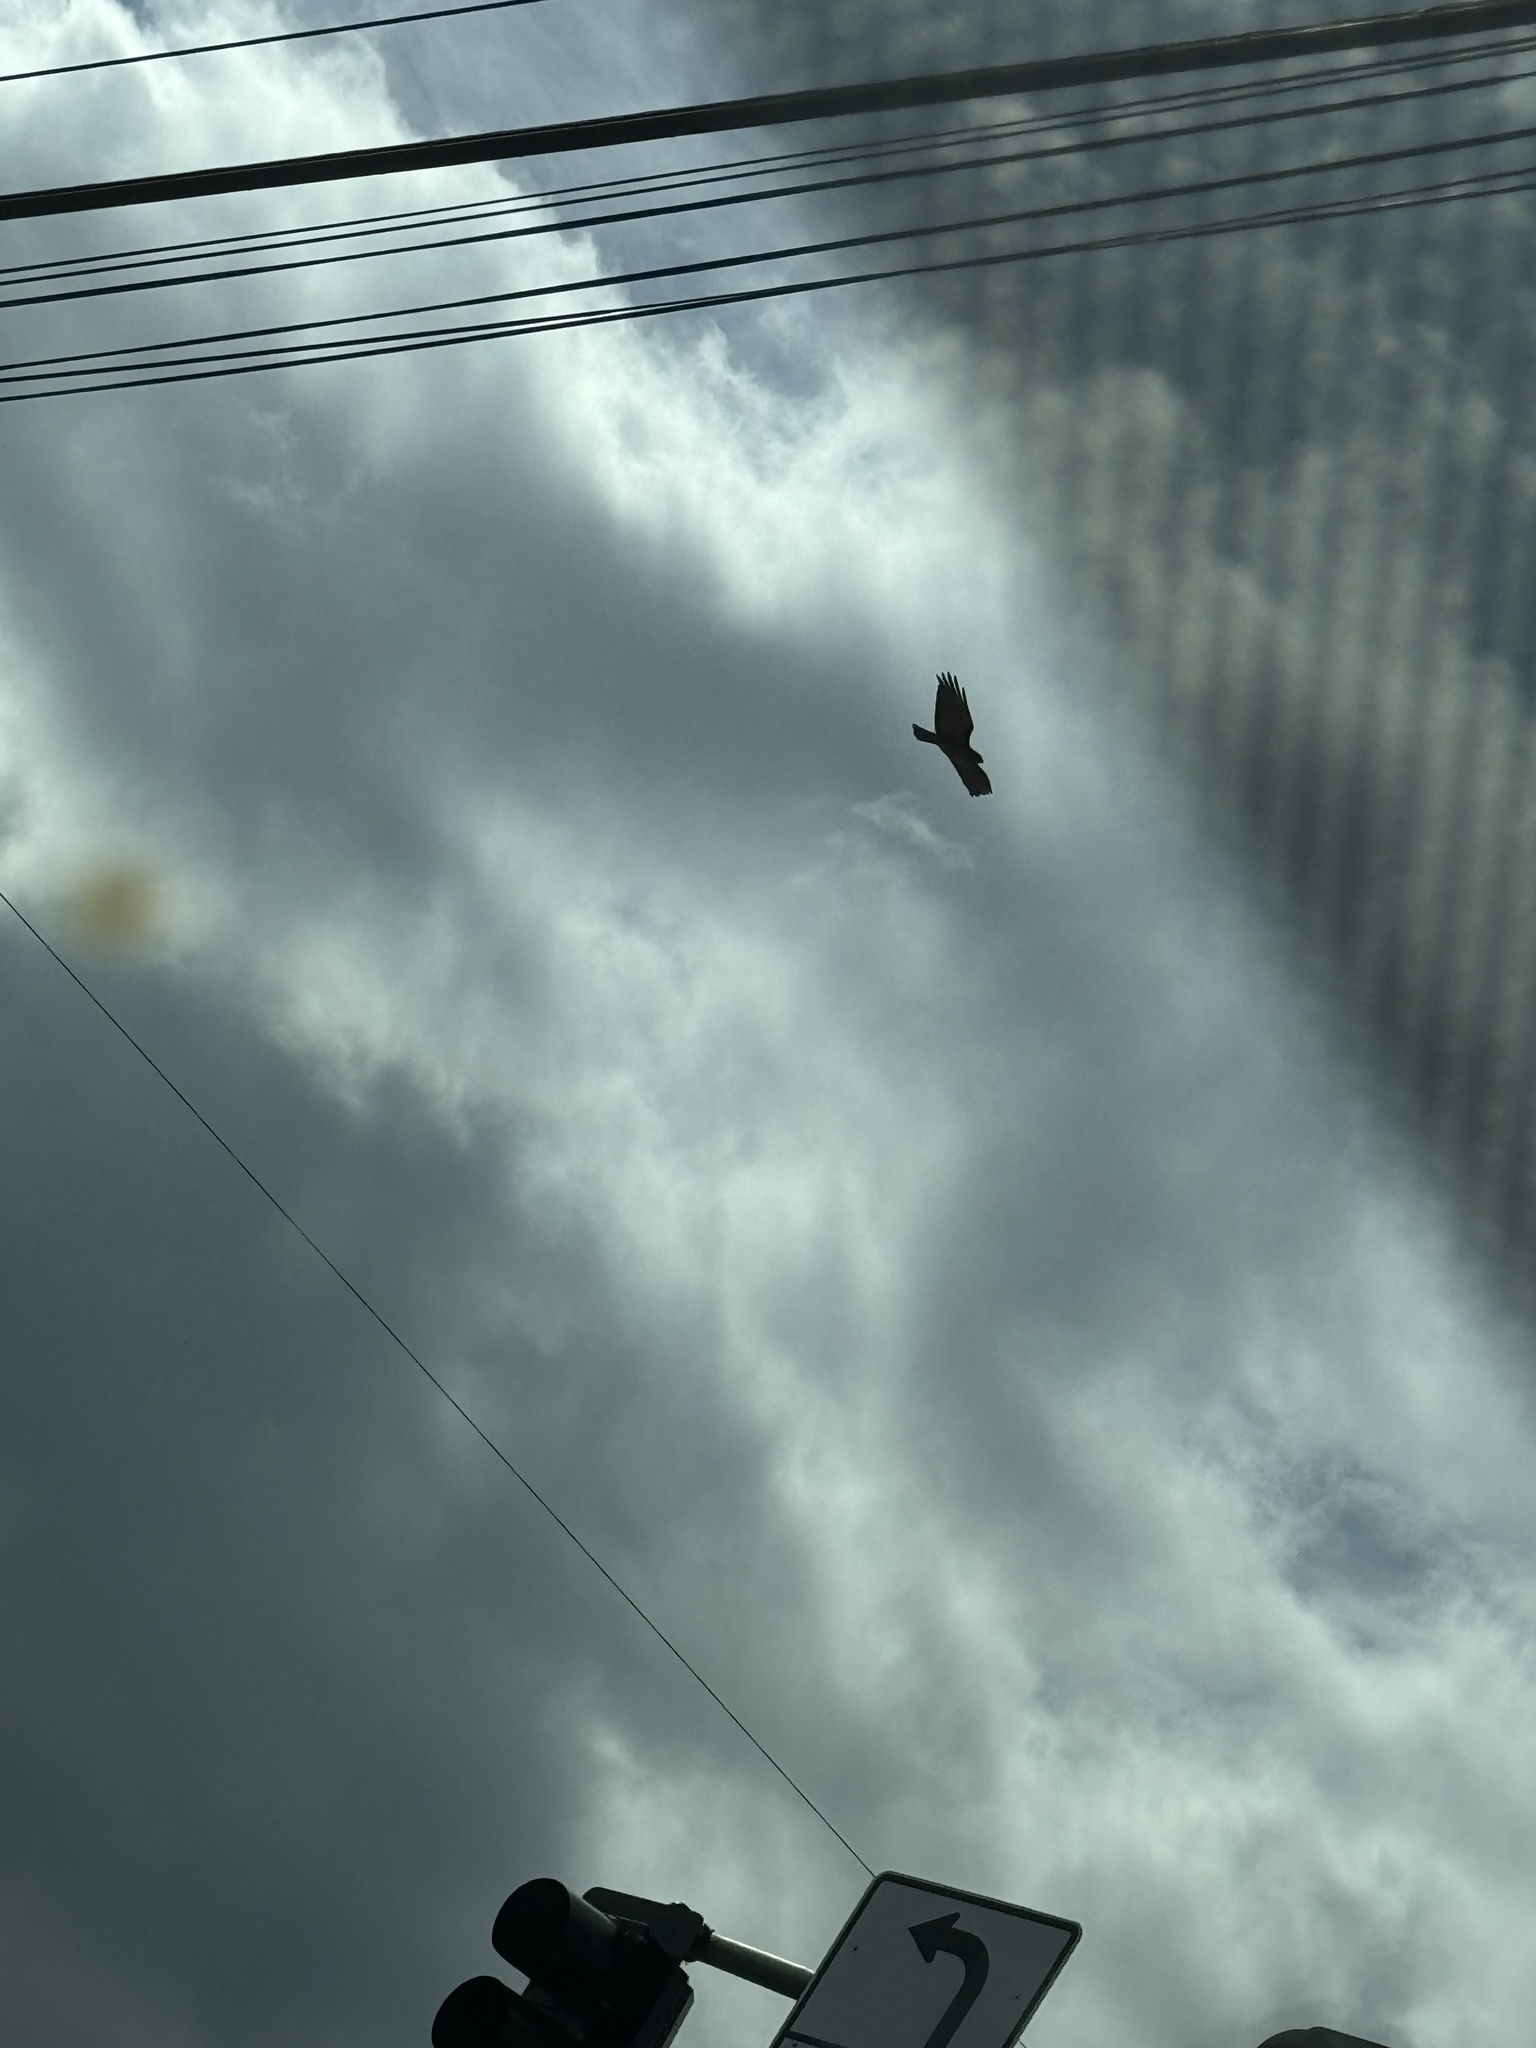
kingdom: Animalia
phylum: Chordata
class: Aves
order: Accipitriformes
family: Accipitridae
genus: Buteo
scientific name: Buteo jamaicensis
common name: Red-tailed hawk
